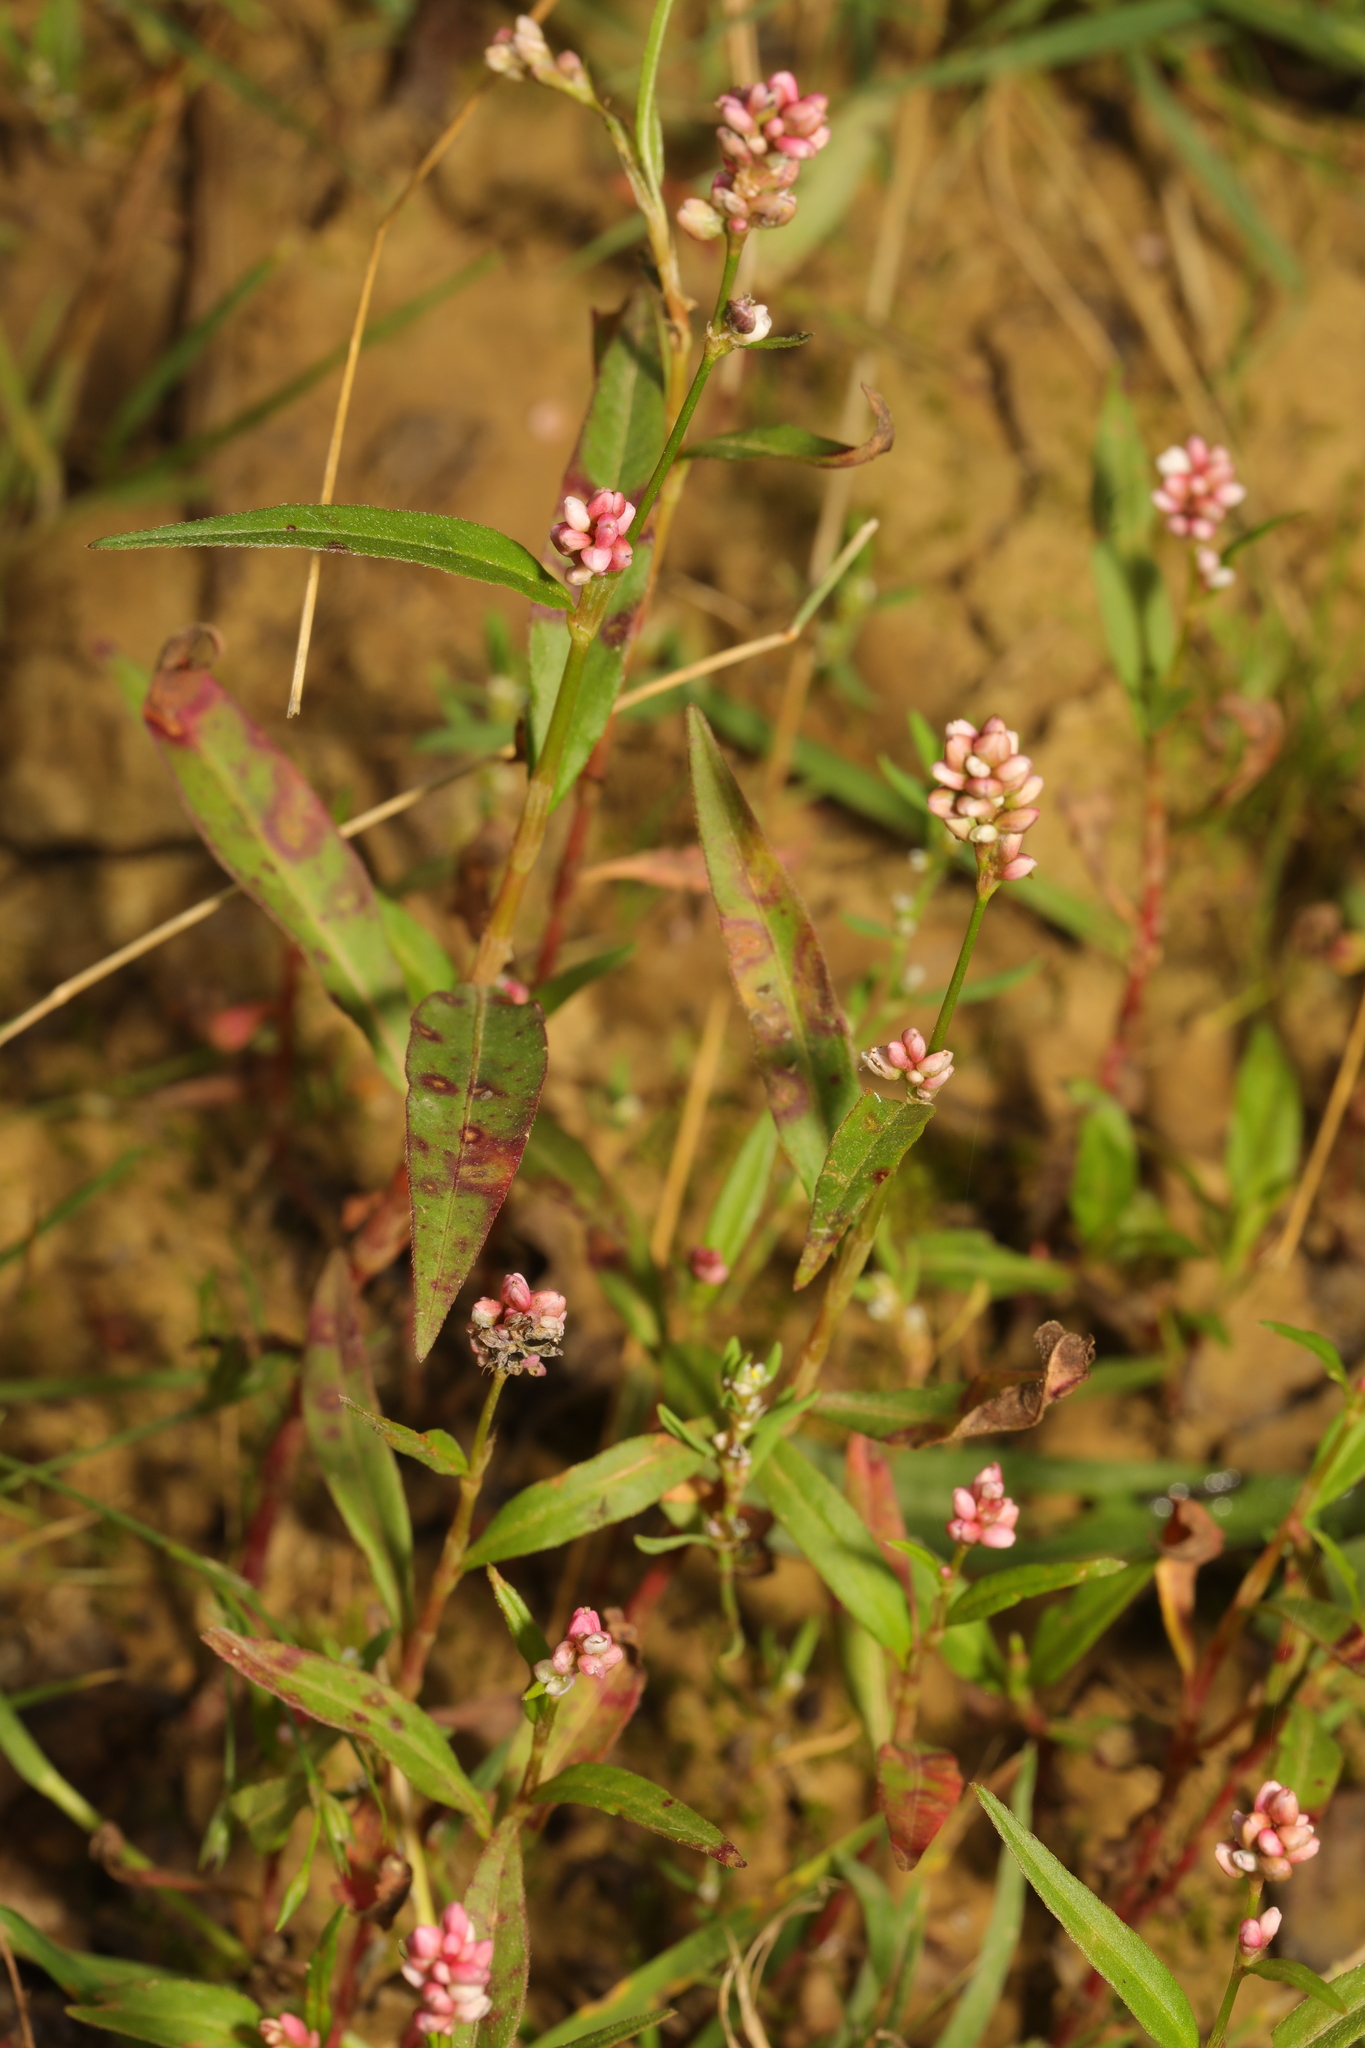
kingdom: Plantae
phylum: Tracheophyta
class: Magnoliopsida
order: Caryophyllales
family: Polygonaceae
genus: Persicaria
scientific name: Persicaria maculosa
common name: Redshank
